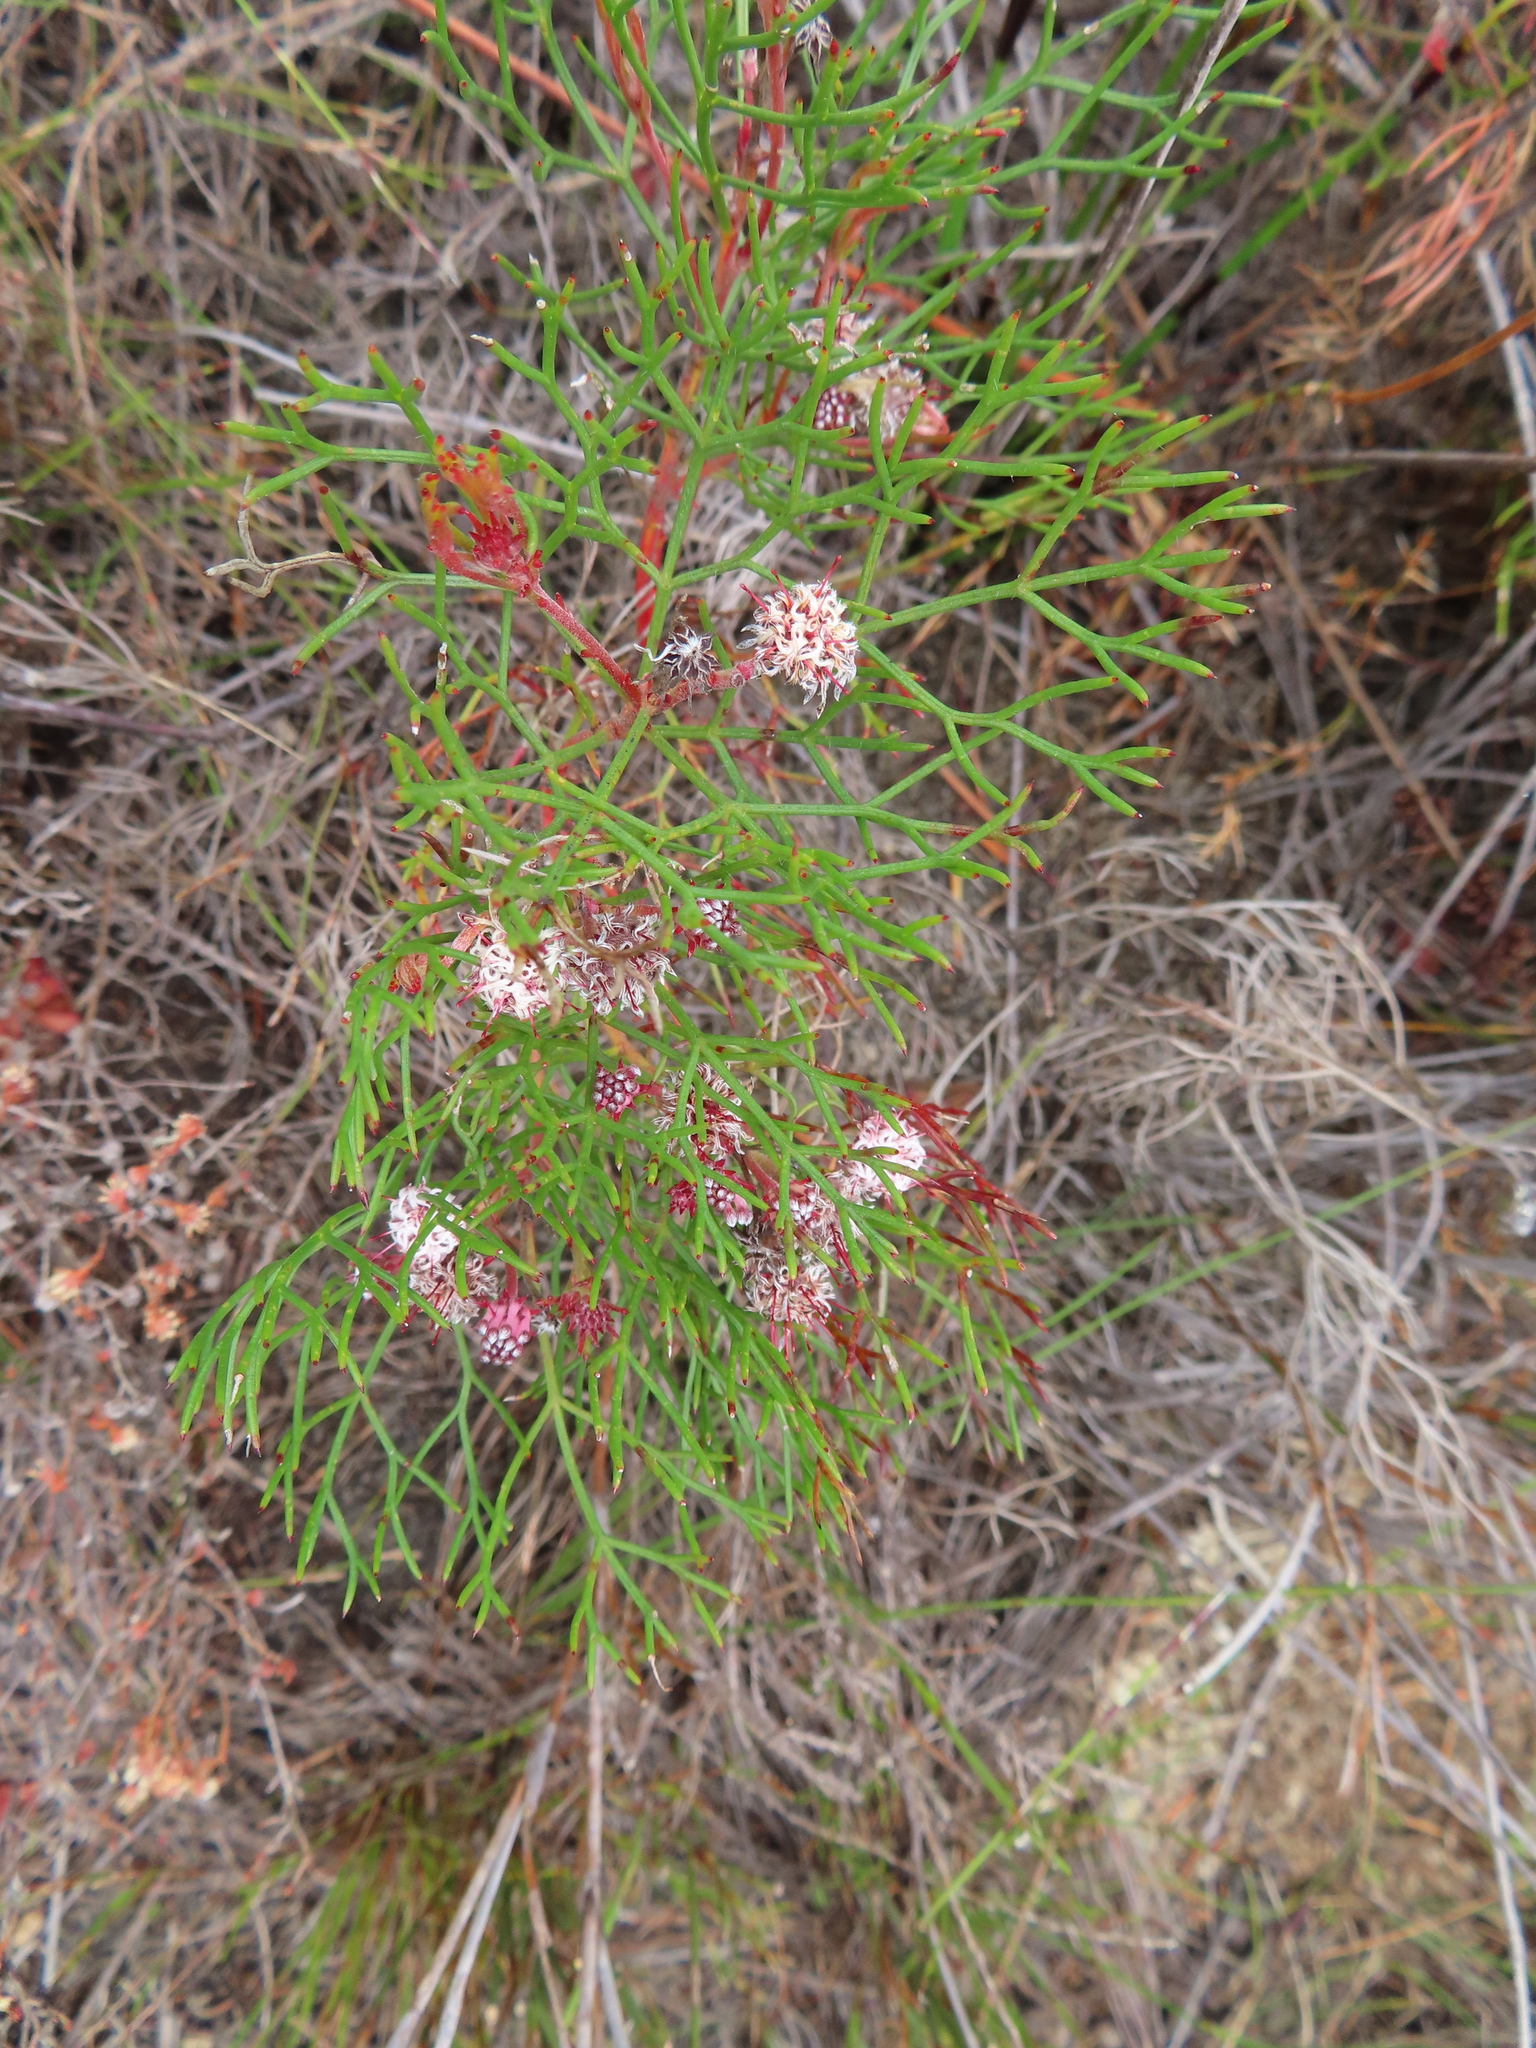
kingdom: Plantae
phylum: Tracheophyta
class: Magnoliopsida
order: Proteales
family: Proteaceae
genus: Serruria
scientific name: Serruria fasciflora
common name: Common pin spiderhead
